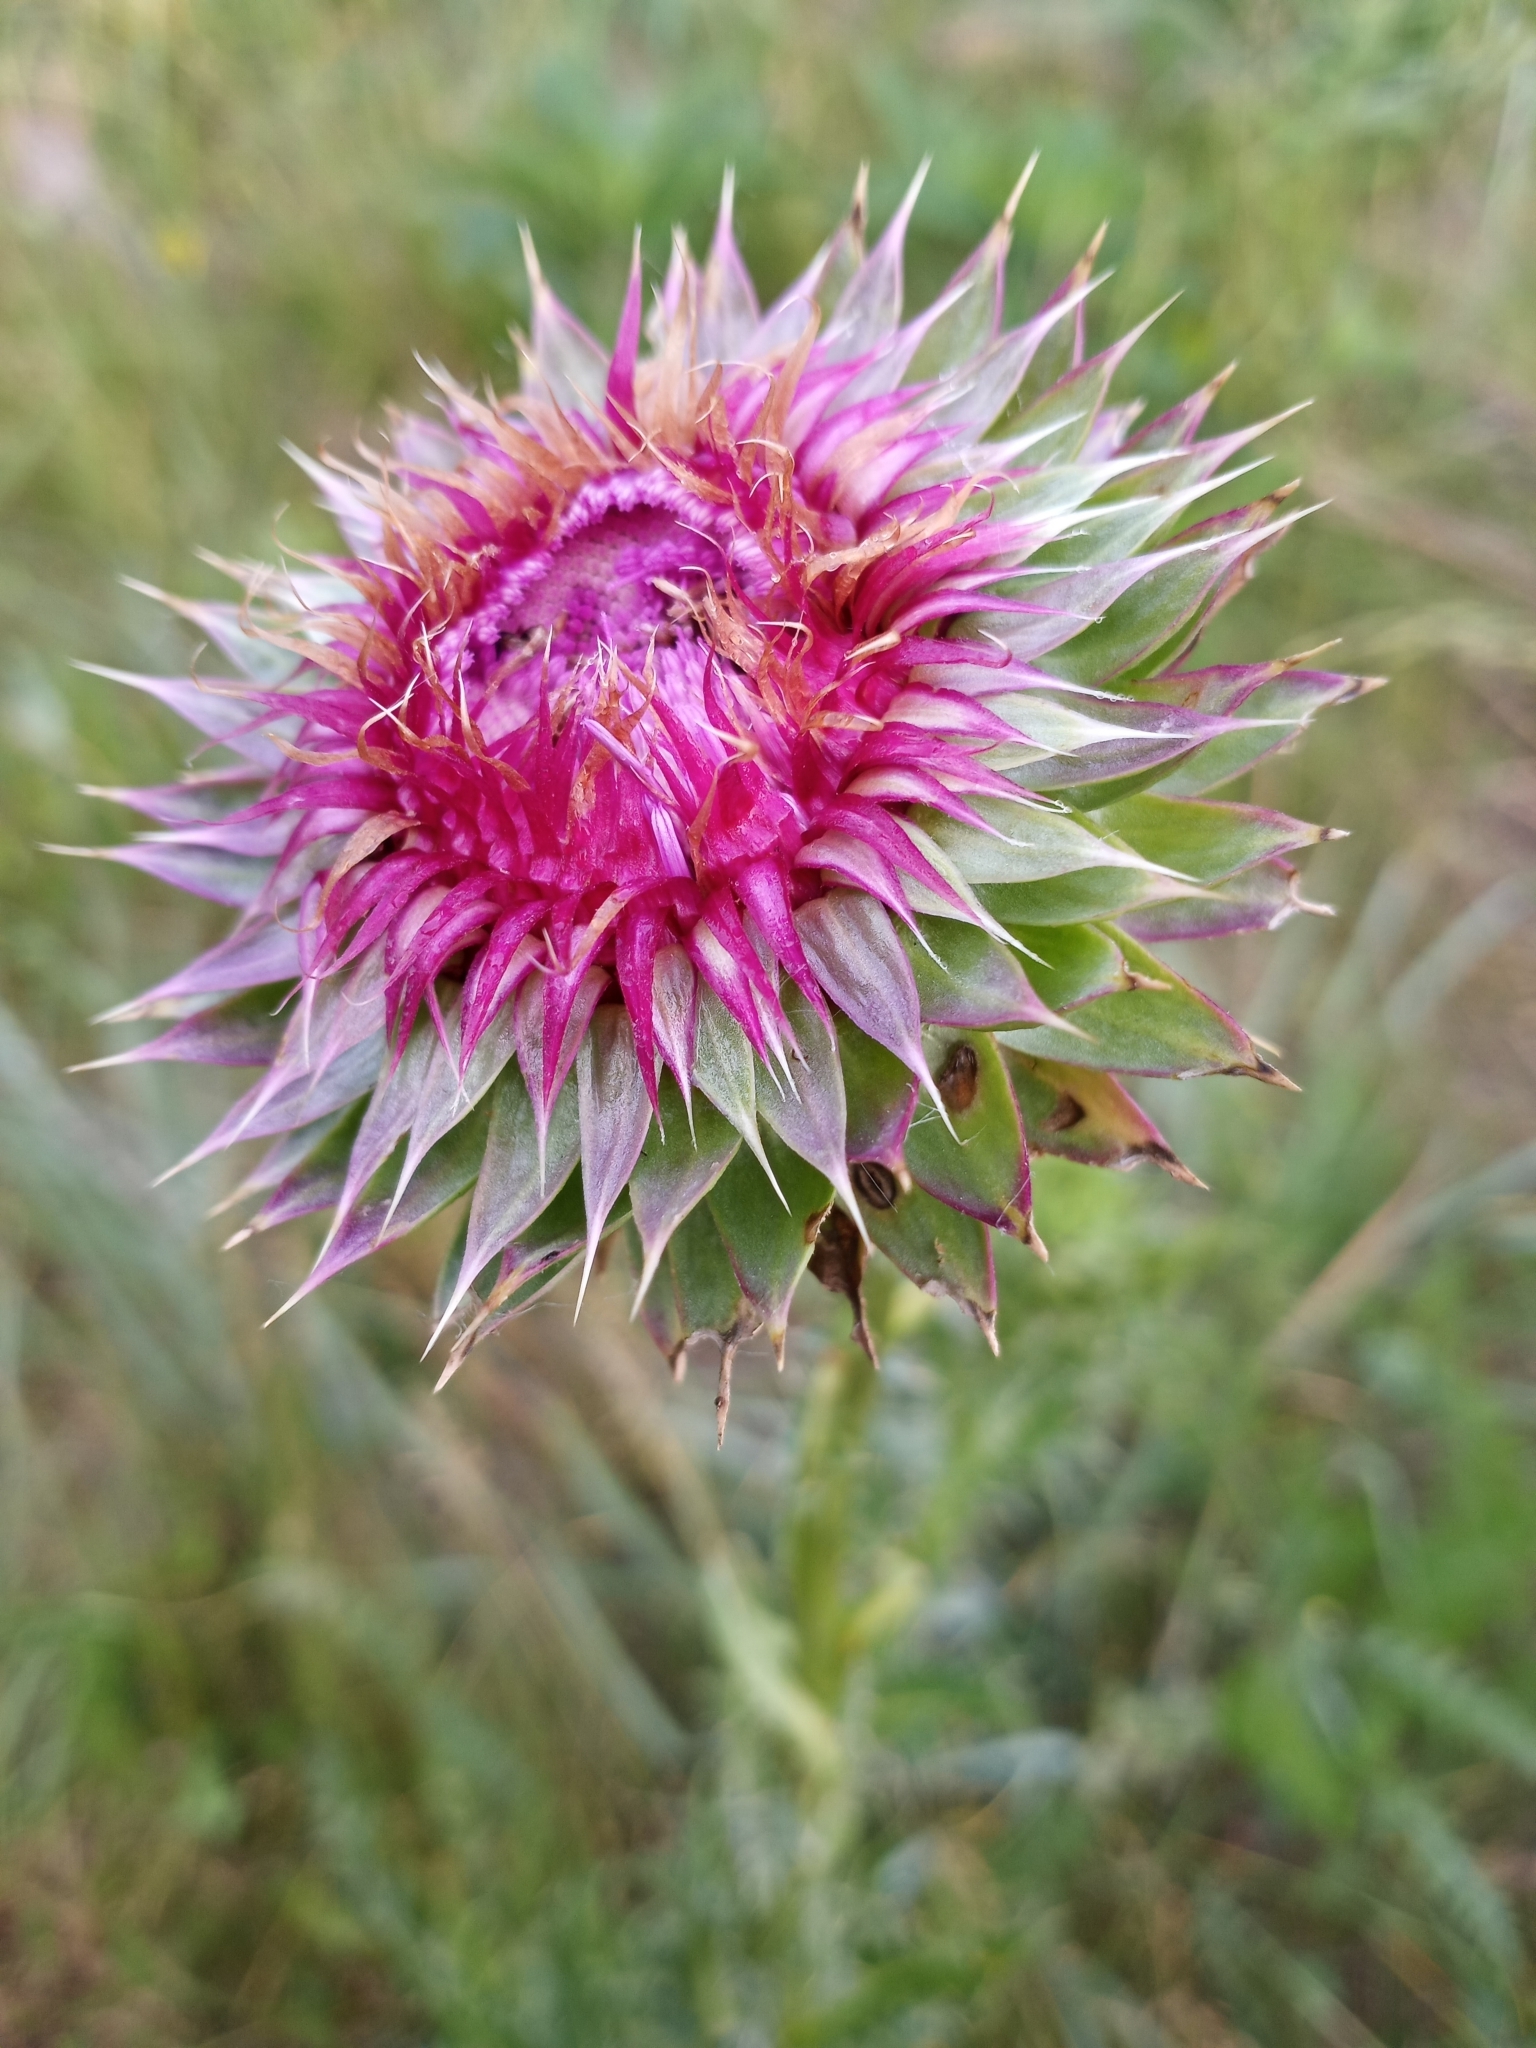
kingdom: Plantae
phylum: Tracheophyta
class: Magnoliopsida
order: Asterales
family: Asteraceae
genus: Carduus
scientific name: Carduus nutans
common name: Musk thistle
